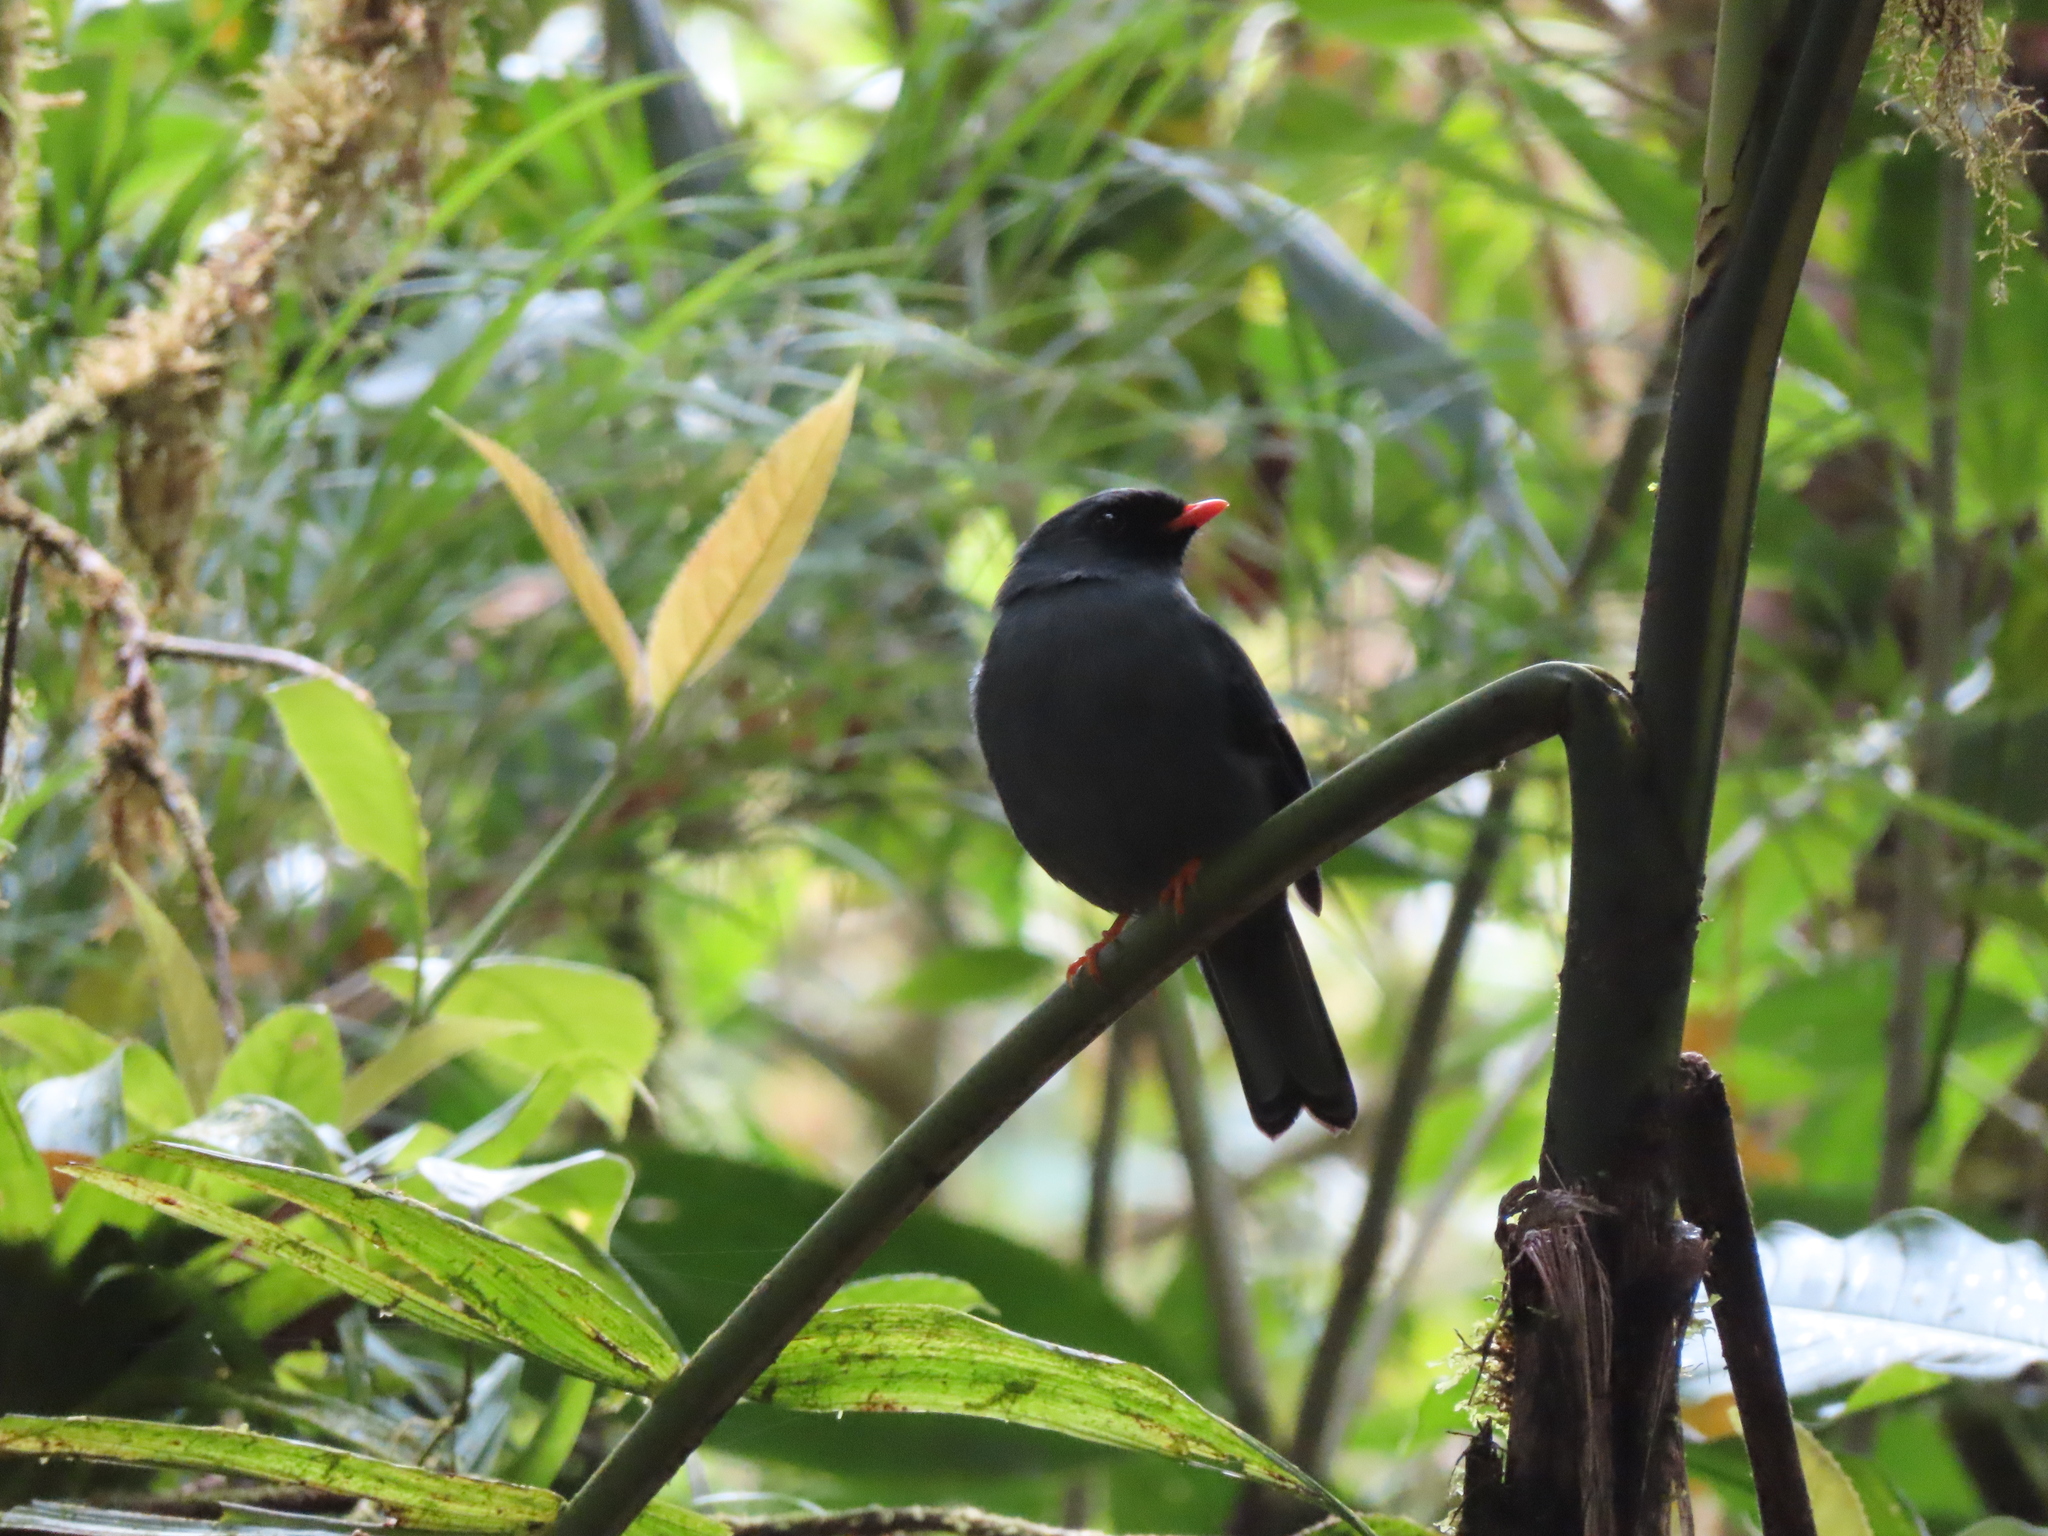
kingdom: Animalia
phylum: Chordata
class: Aves
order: Passeriformes
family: Turdidae
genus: Myadestes
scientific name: Myadestes melanops
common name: Black-faced solitaire
